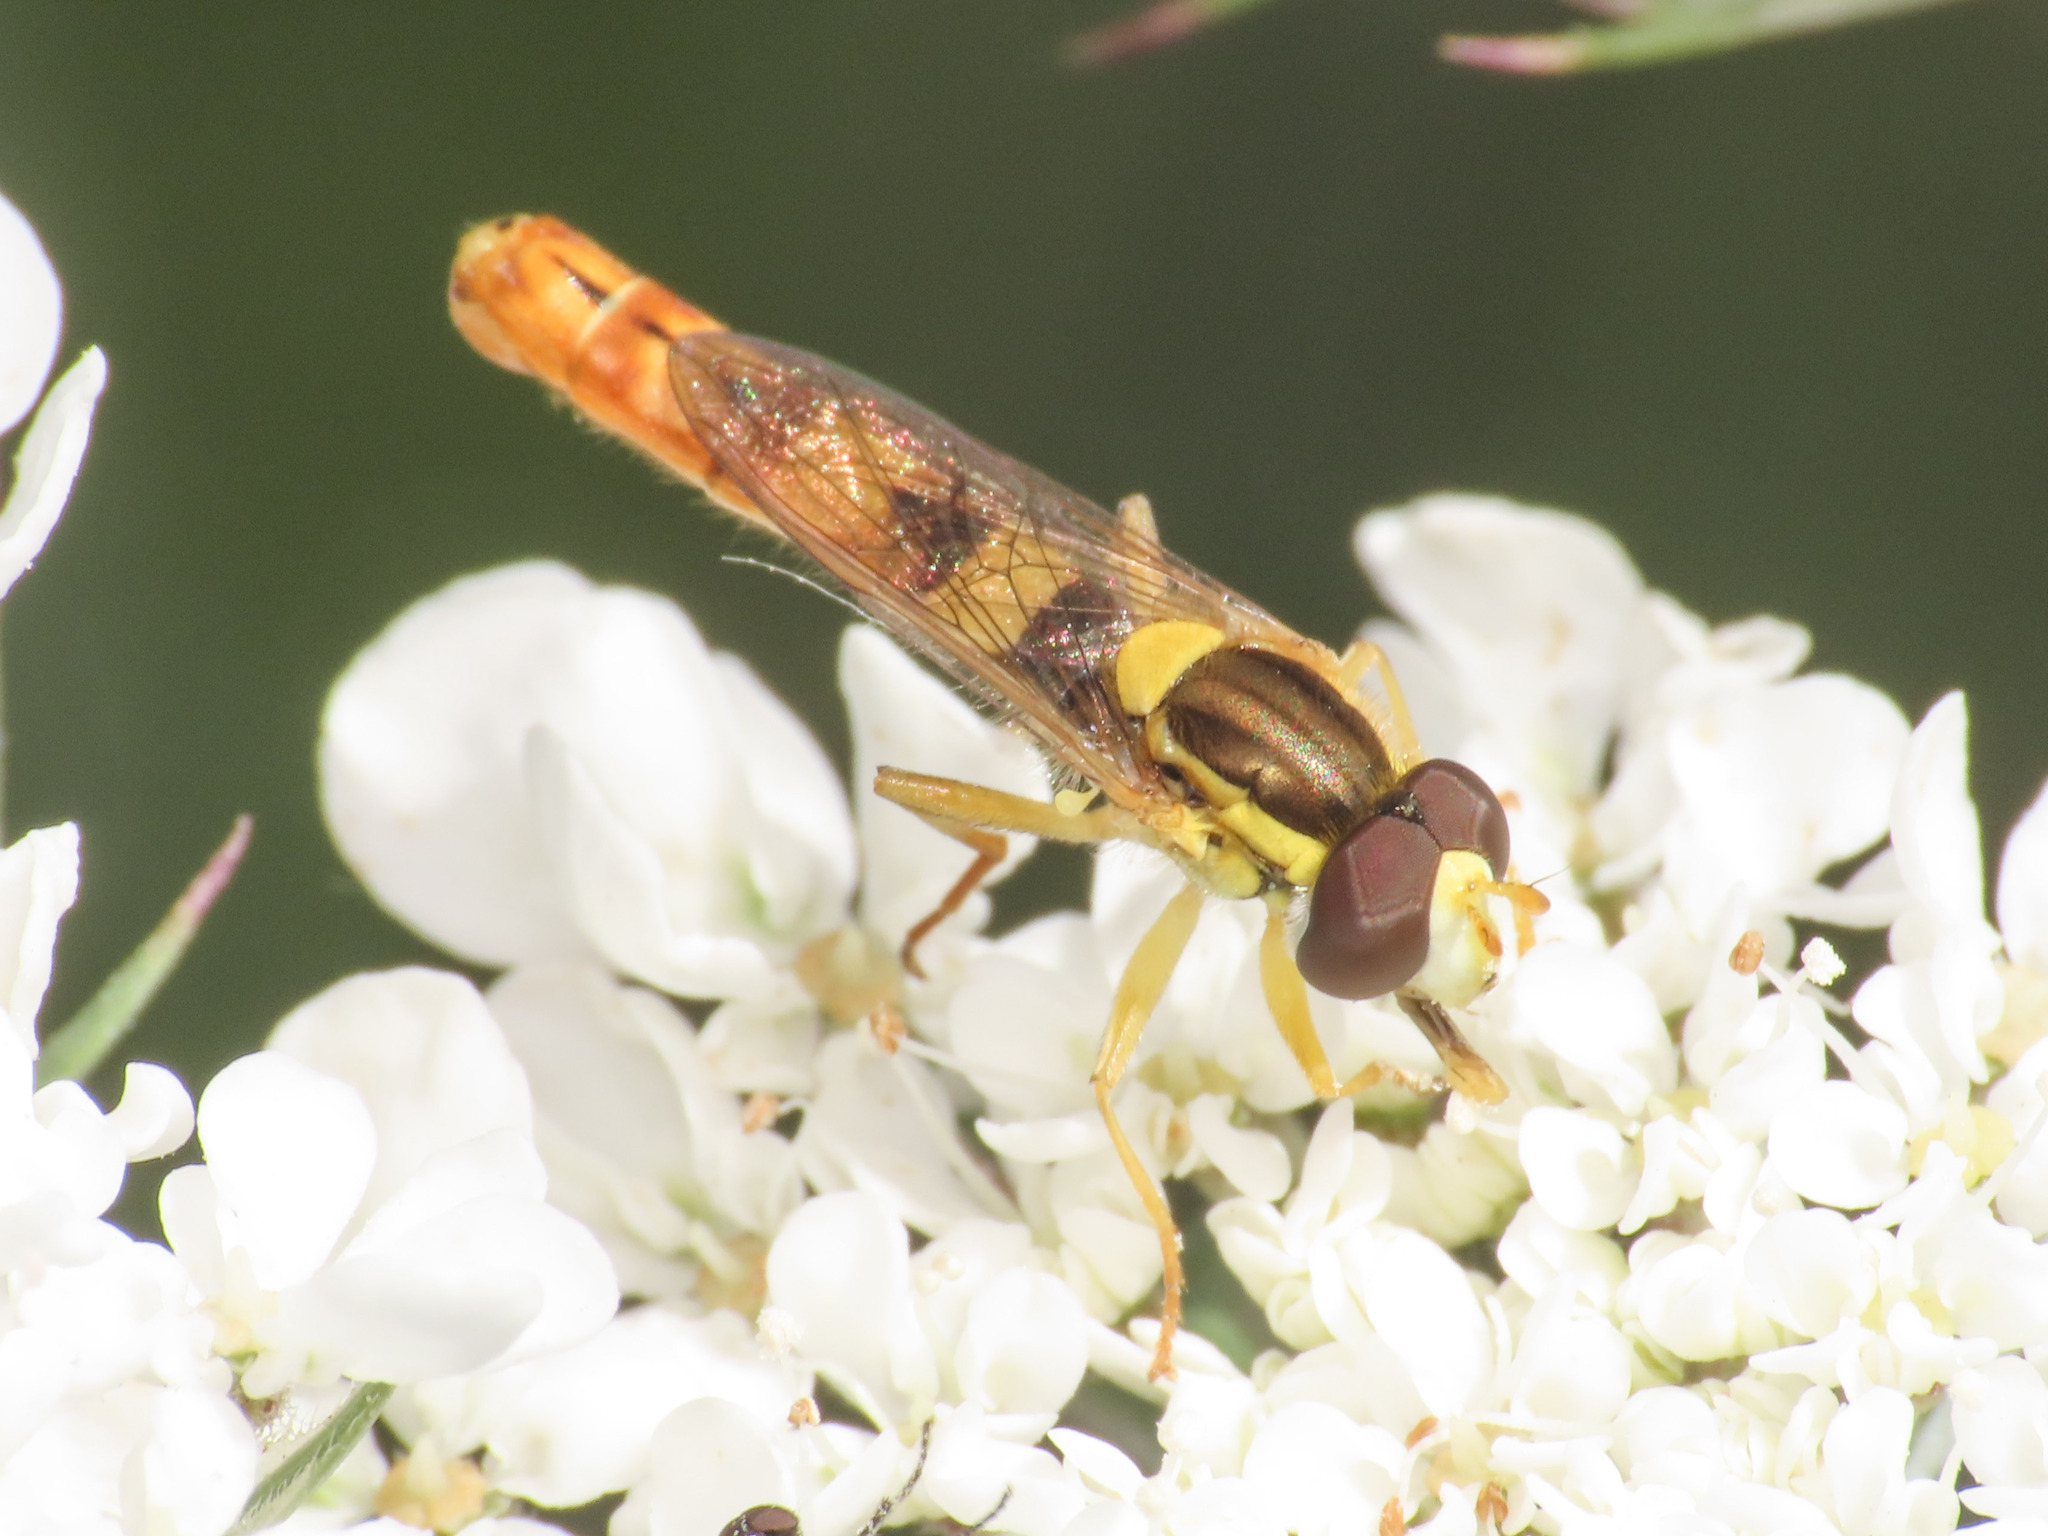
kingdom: Animalia
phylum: Arthropoda
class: Insecta
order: Diptera
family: Syrphidae
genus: Sphaerophoria
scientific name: Sphaerophoria scripta
